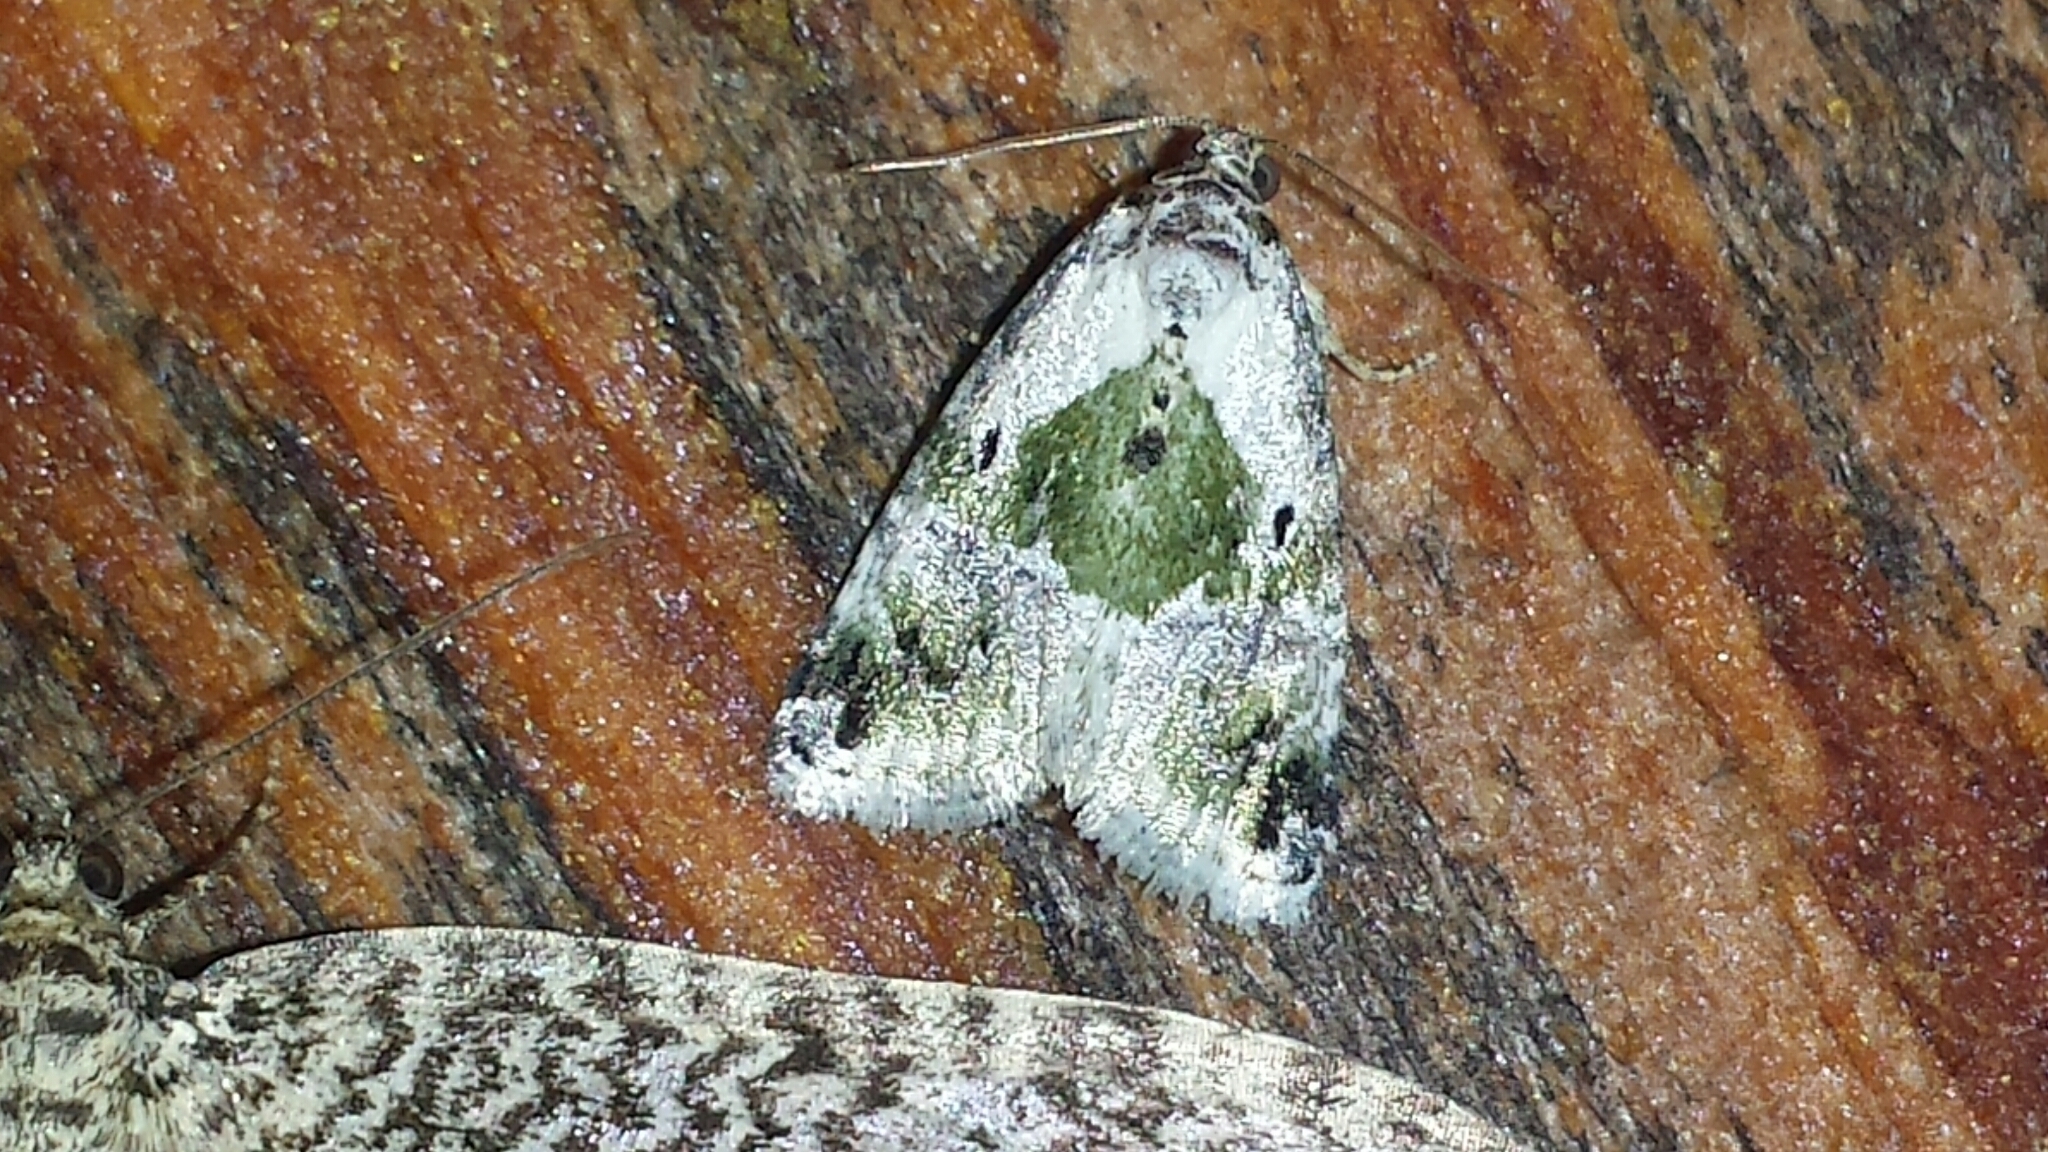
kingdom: Animalia
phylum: Arthropoda
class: Insecta
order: Lepidoptera
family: Noctuidae
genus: Maliattha
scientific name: Maliattha synochitis
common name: Black-dotted glyph
